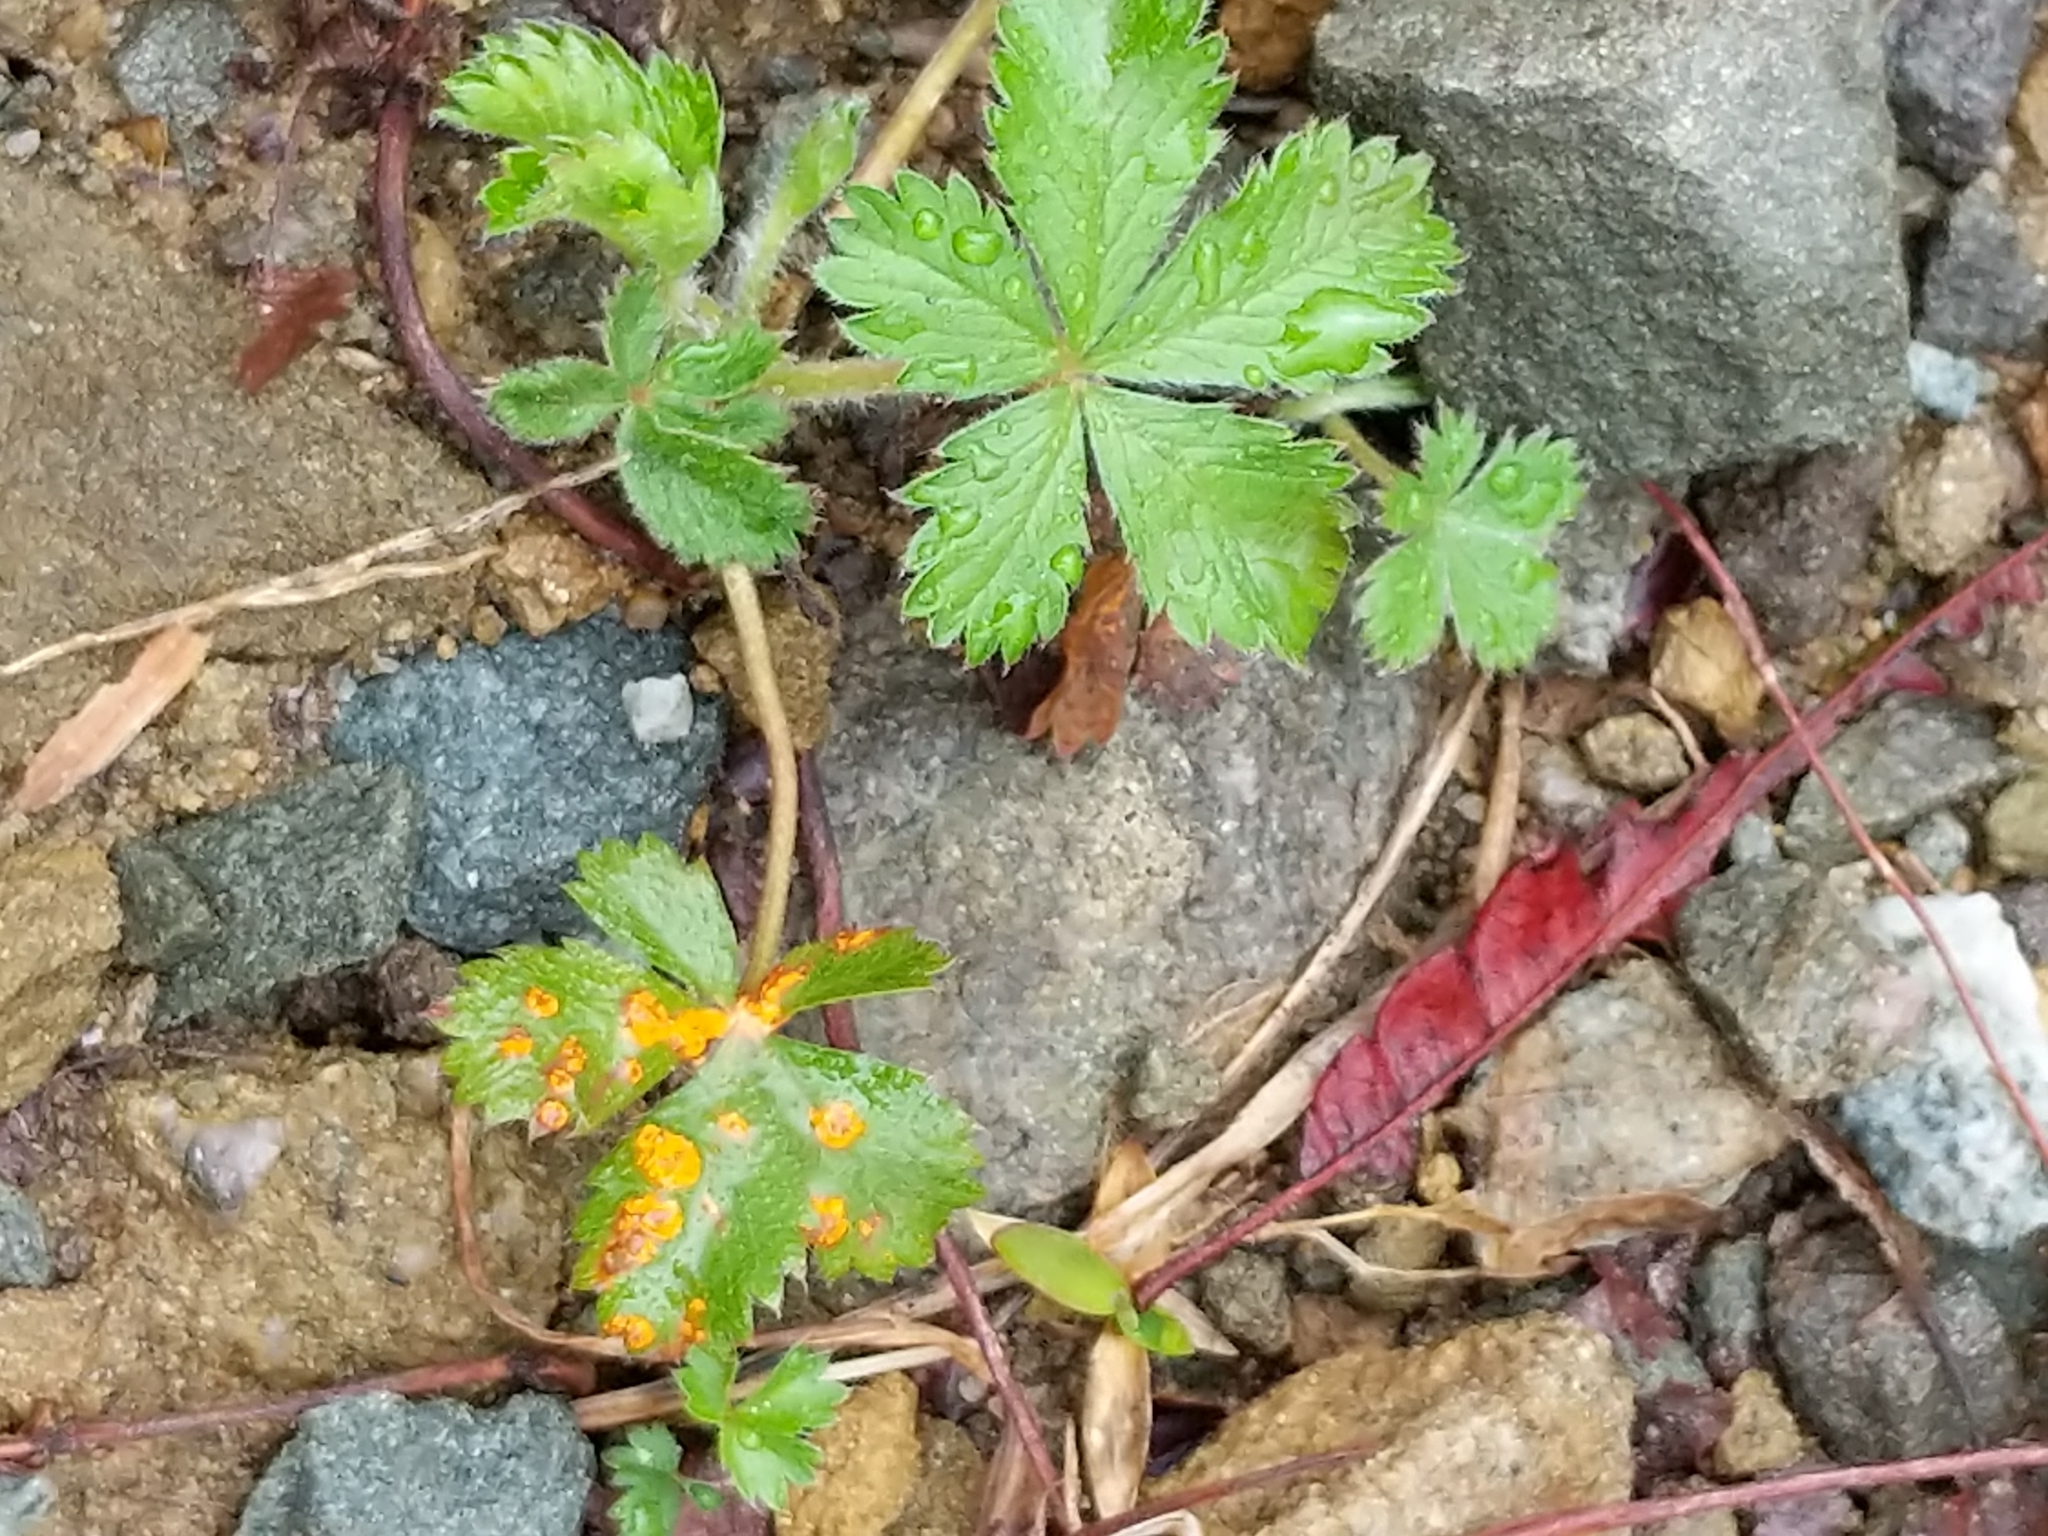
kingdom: Fungi
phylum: Basidiomycota
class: Pucciniomycetes
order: Pucciniales
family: Phragmidiaceae
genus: Phragmidium
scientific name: Phragmidium potentillae
